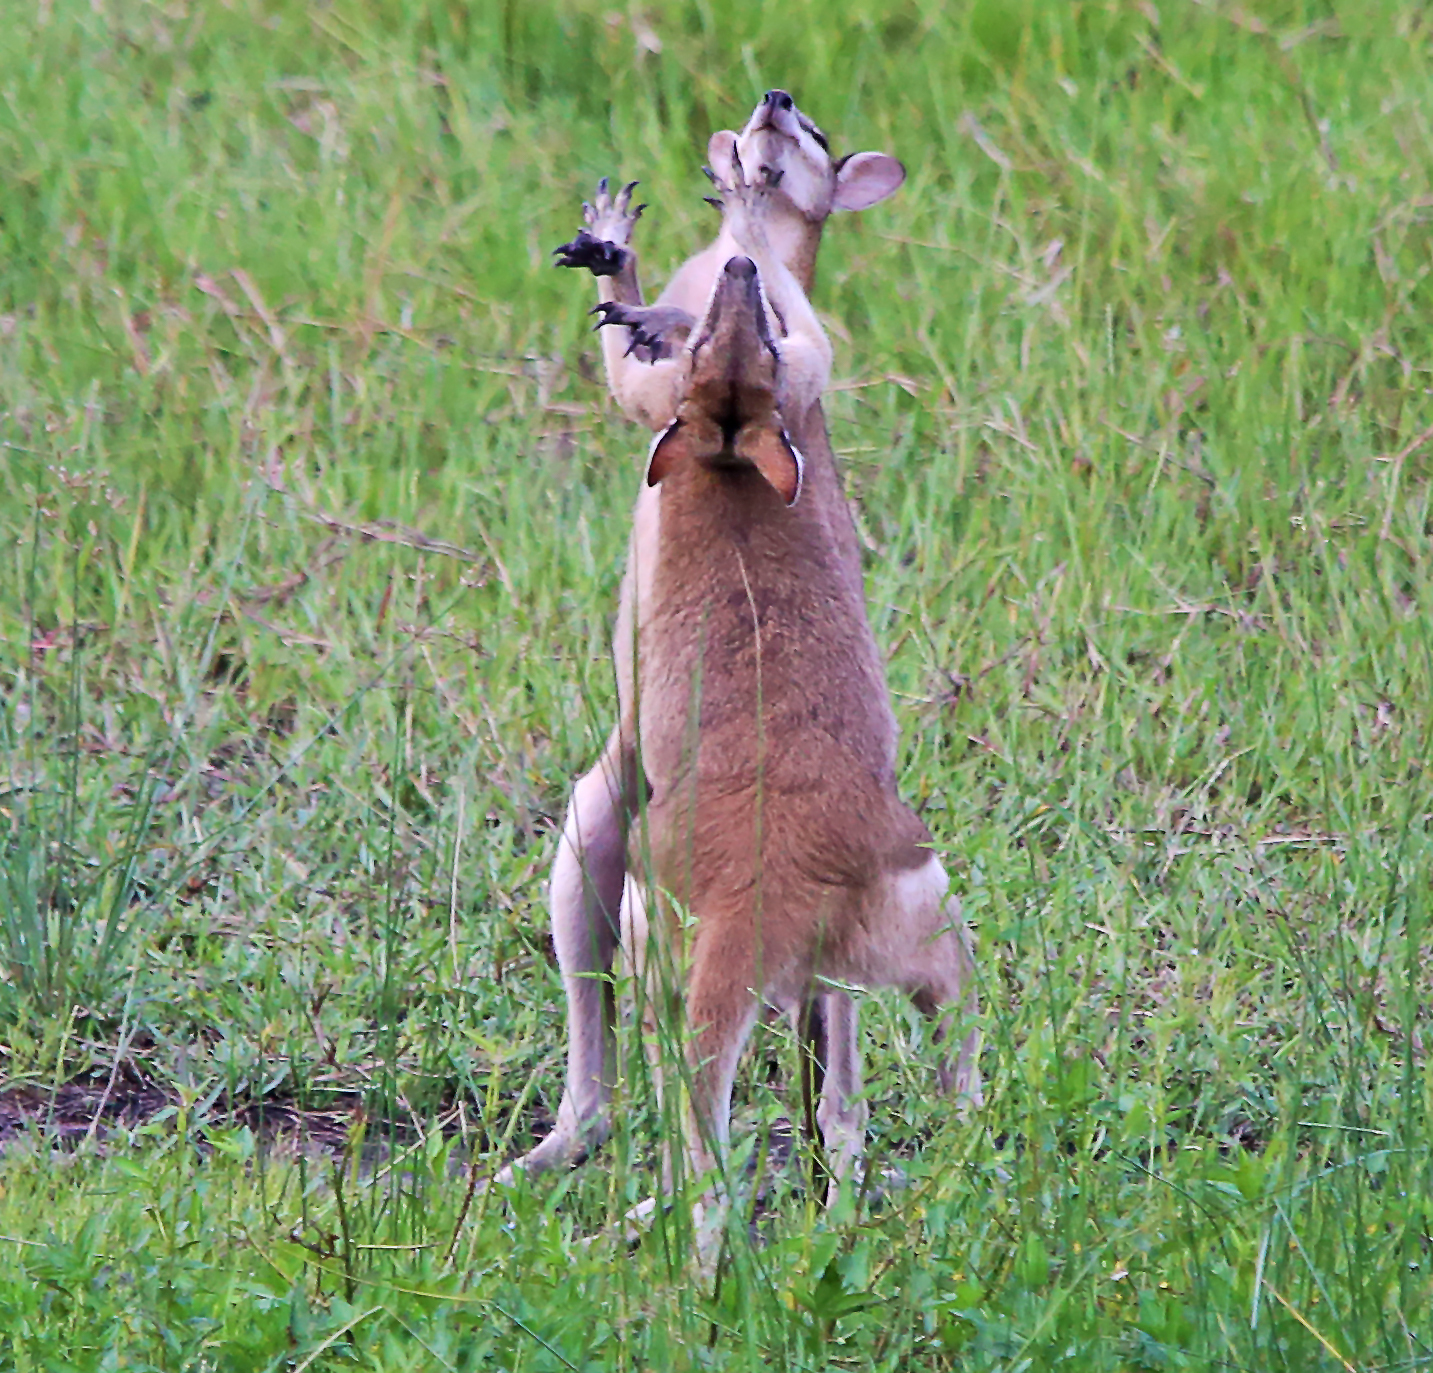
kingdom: Animalia
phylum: Chordata
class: Mammalia
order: Diprotodontia
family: Macropodidae
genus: Macropus
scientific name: Macropus agilis
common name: Agile wallaby
